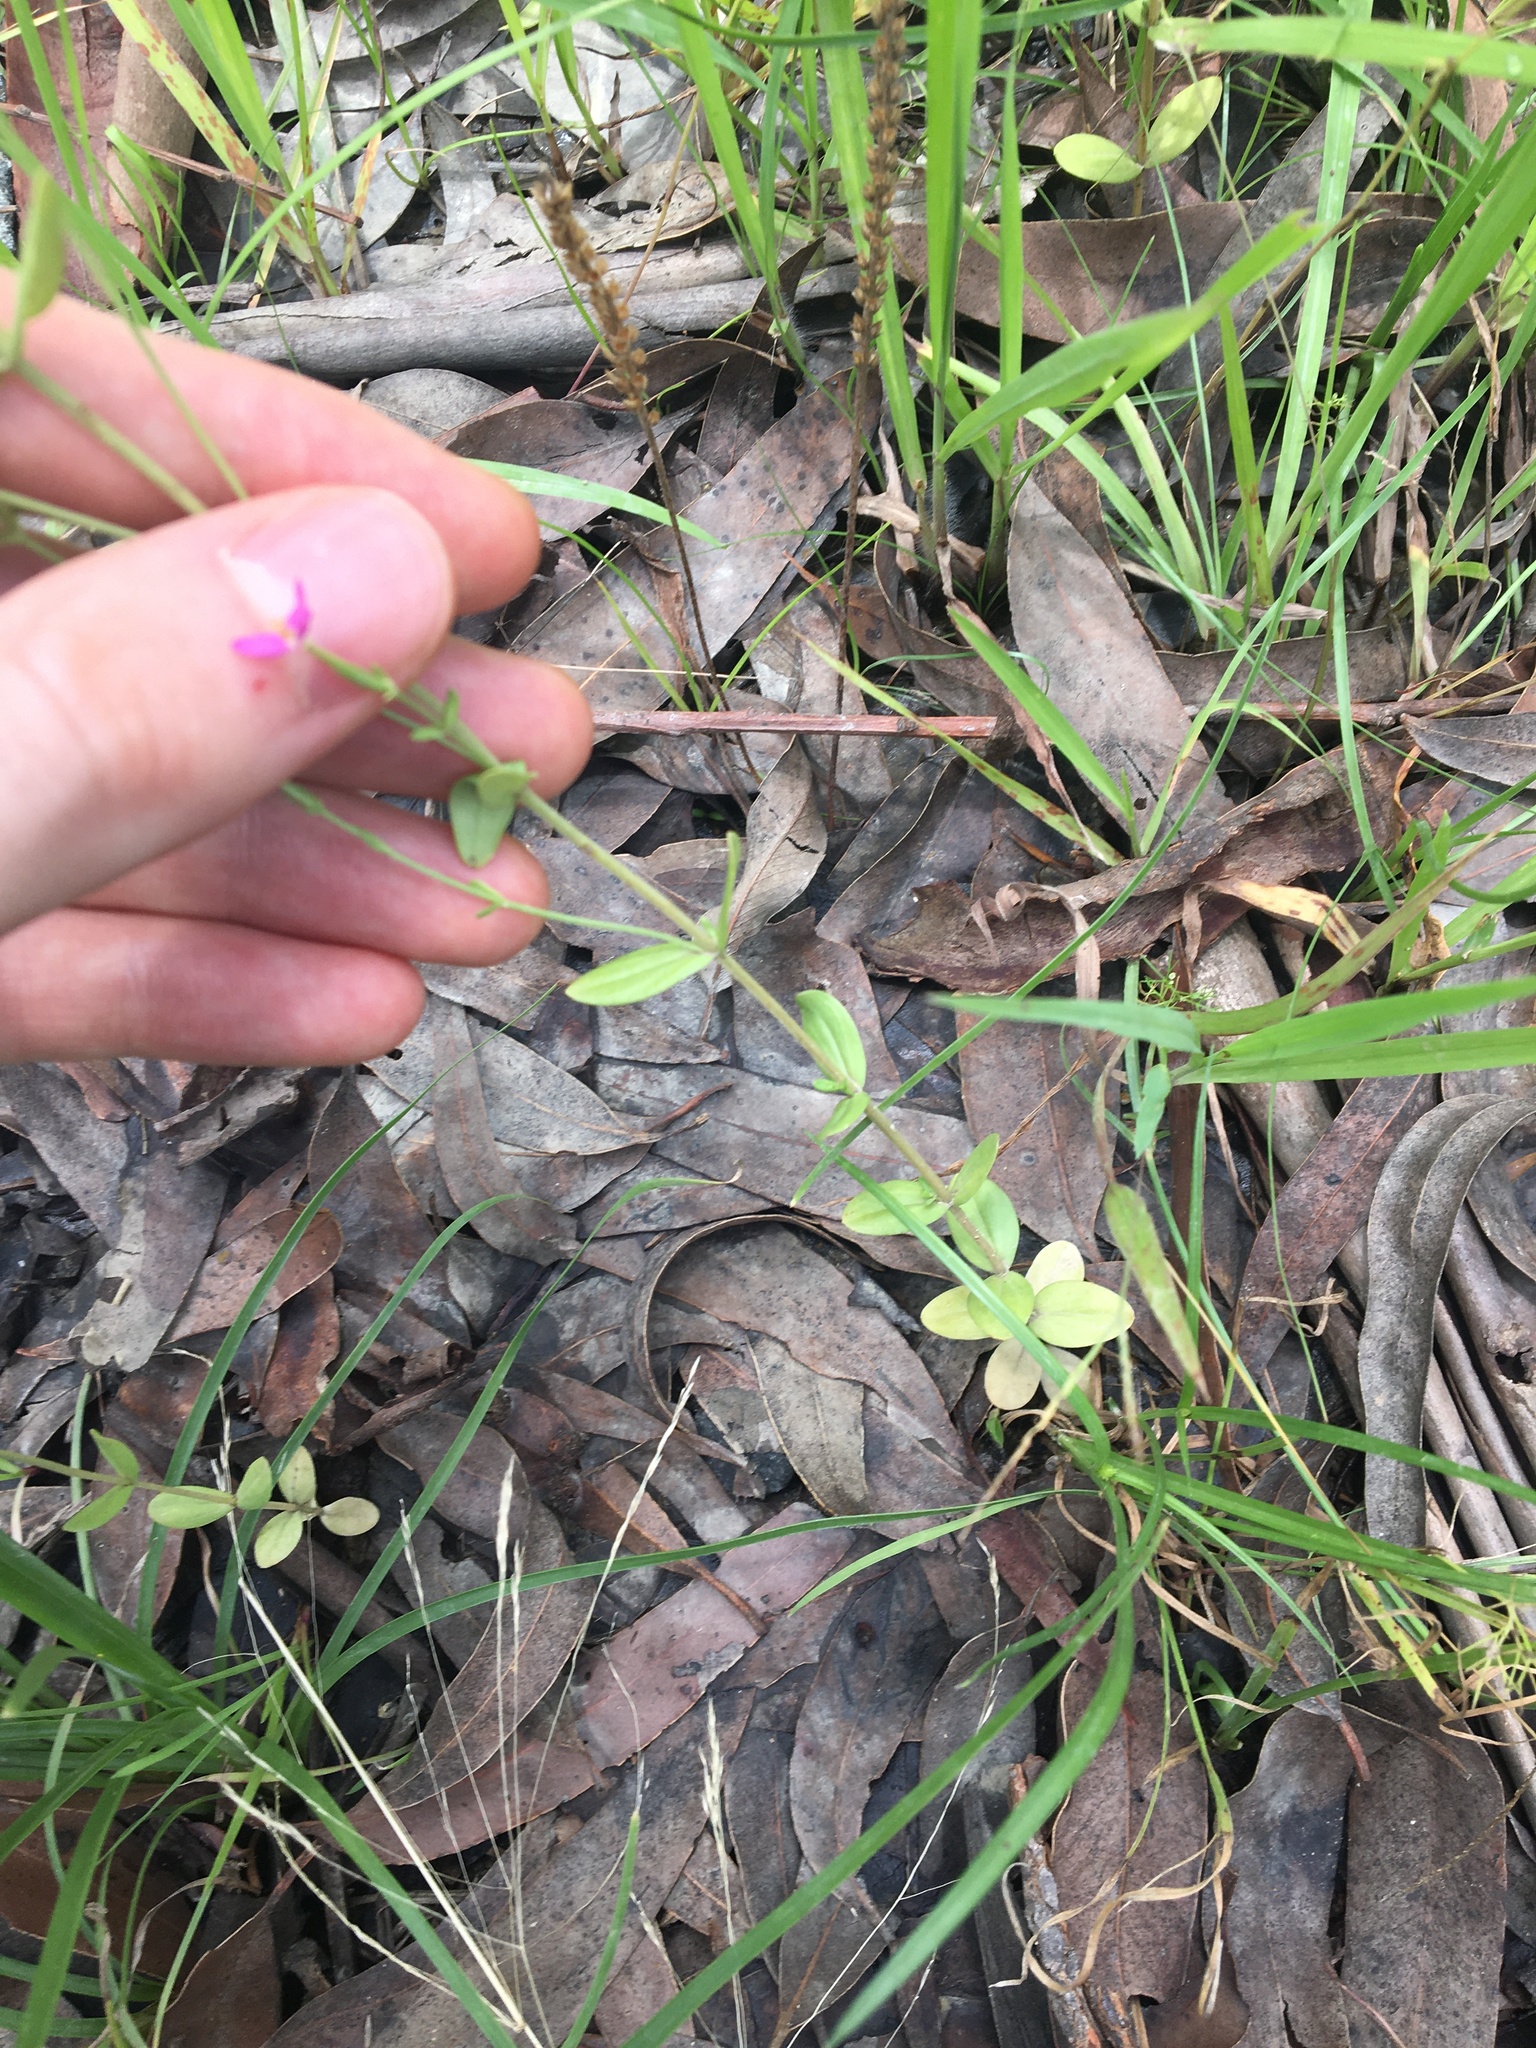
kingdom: Plantae
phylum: Tracheophyta
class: Magnoliopsida
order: Gentianales
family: Gentianaceae
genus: Centaurium
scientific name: Centaurium erythraea
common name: Common centaury
